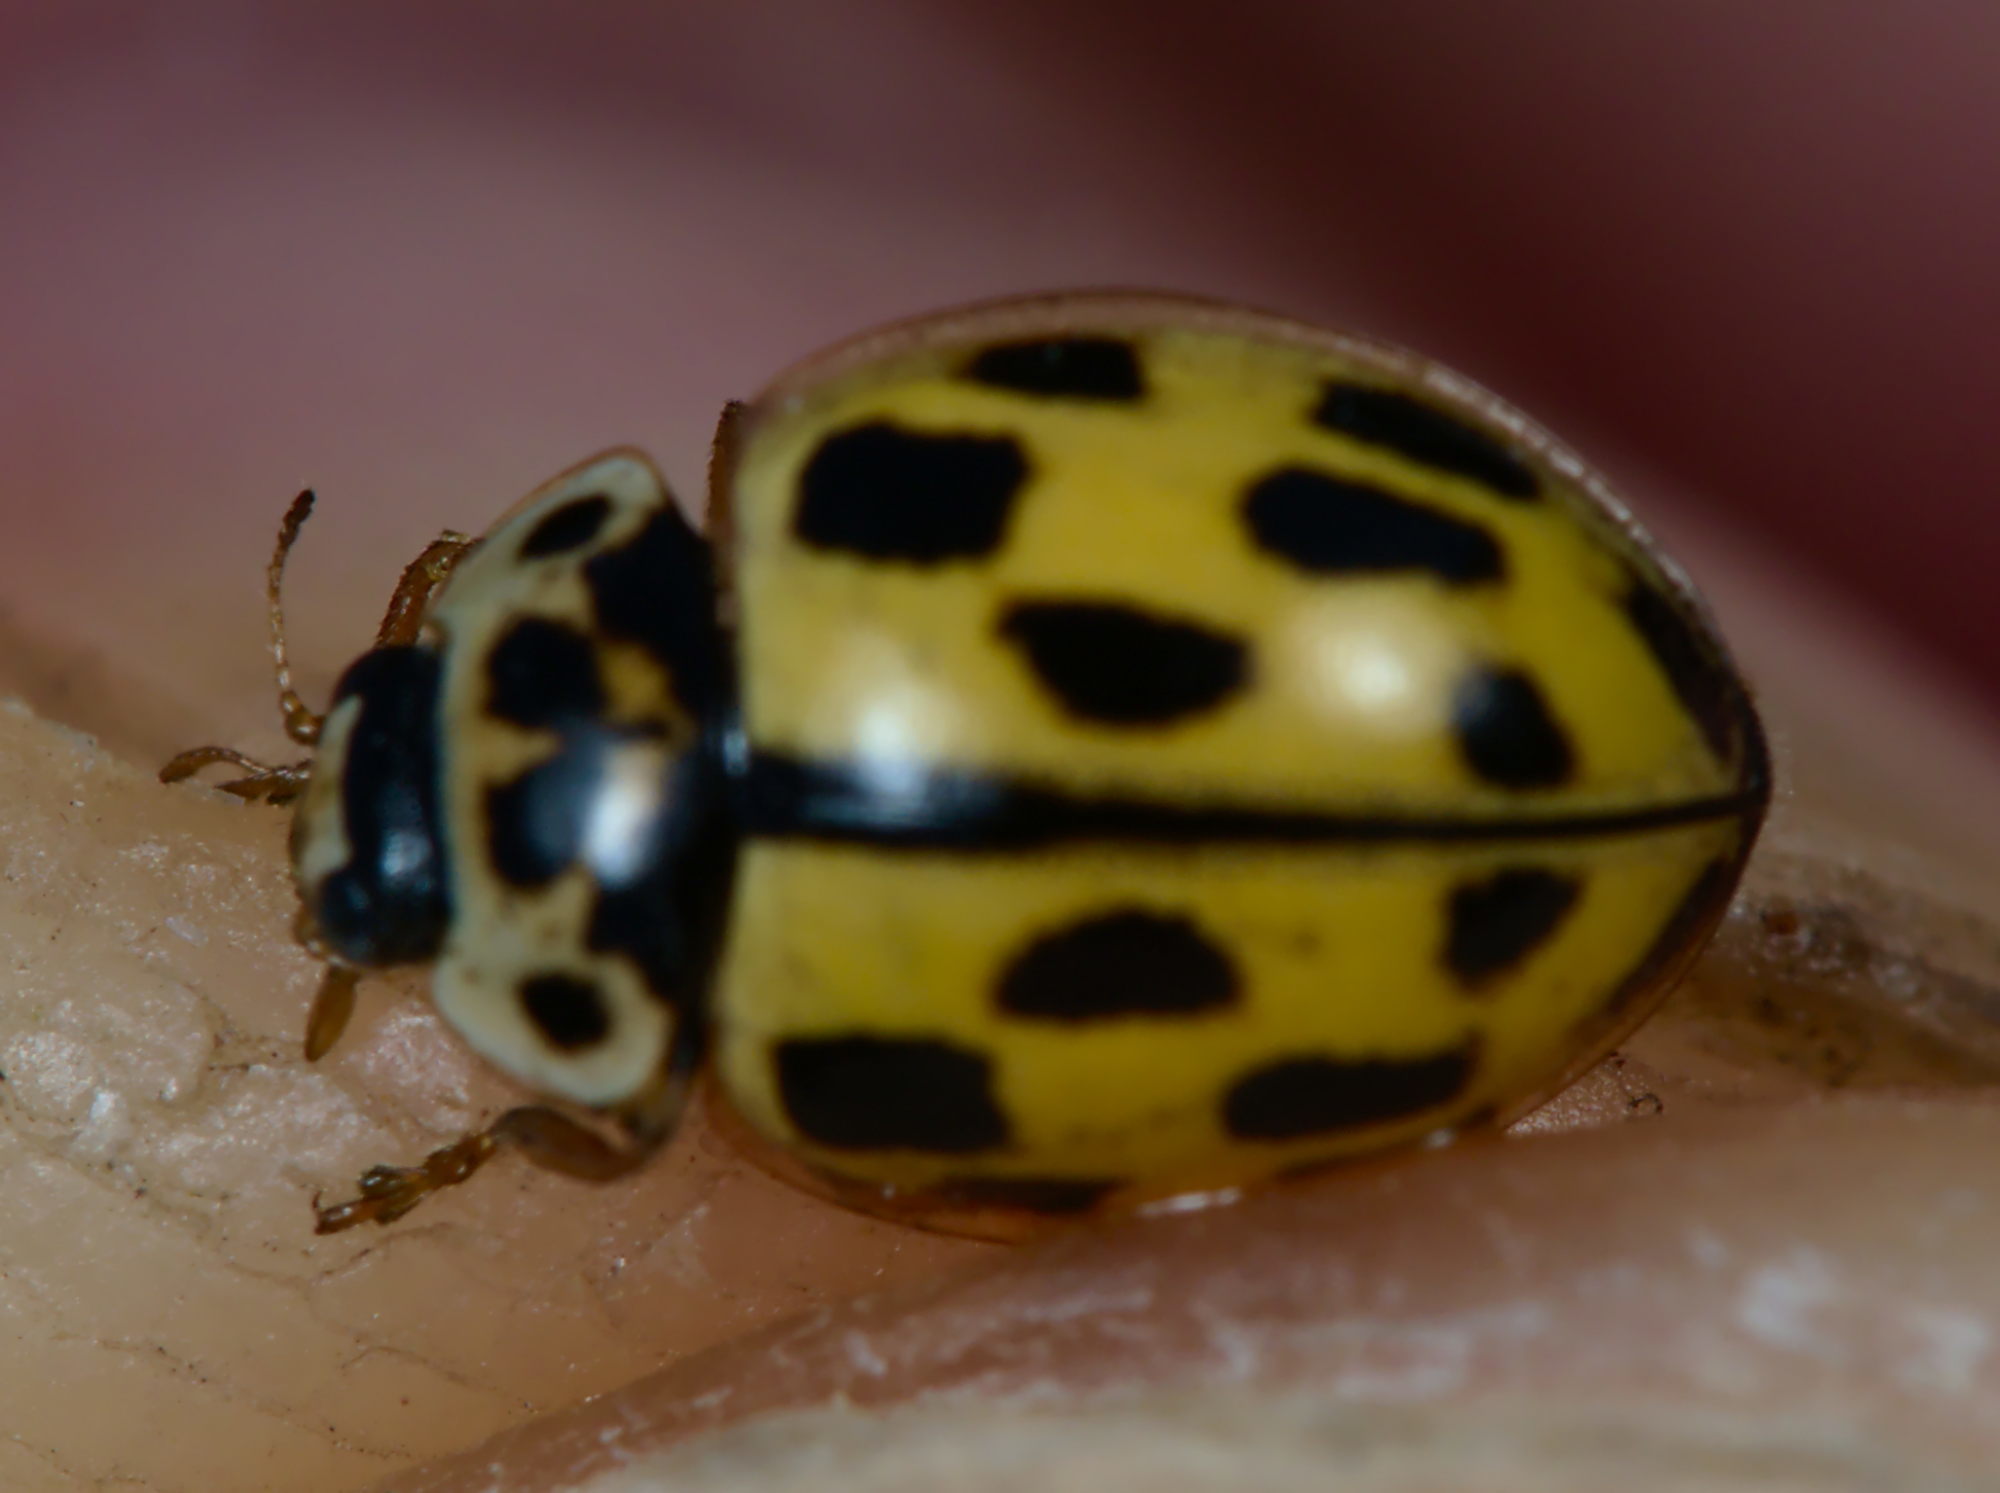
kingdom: Animalia
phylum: Arthropoda
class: Insecta
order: Coleoptera
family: Coccinellidae
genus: Propylaea
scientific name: Propylaea quatuordecimpunctata
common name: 14-spotted ladybird beetle
